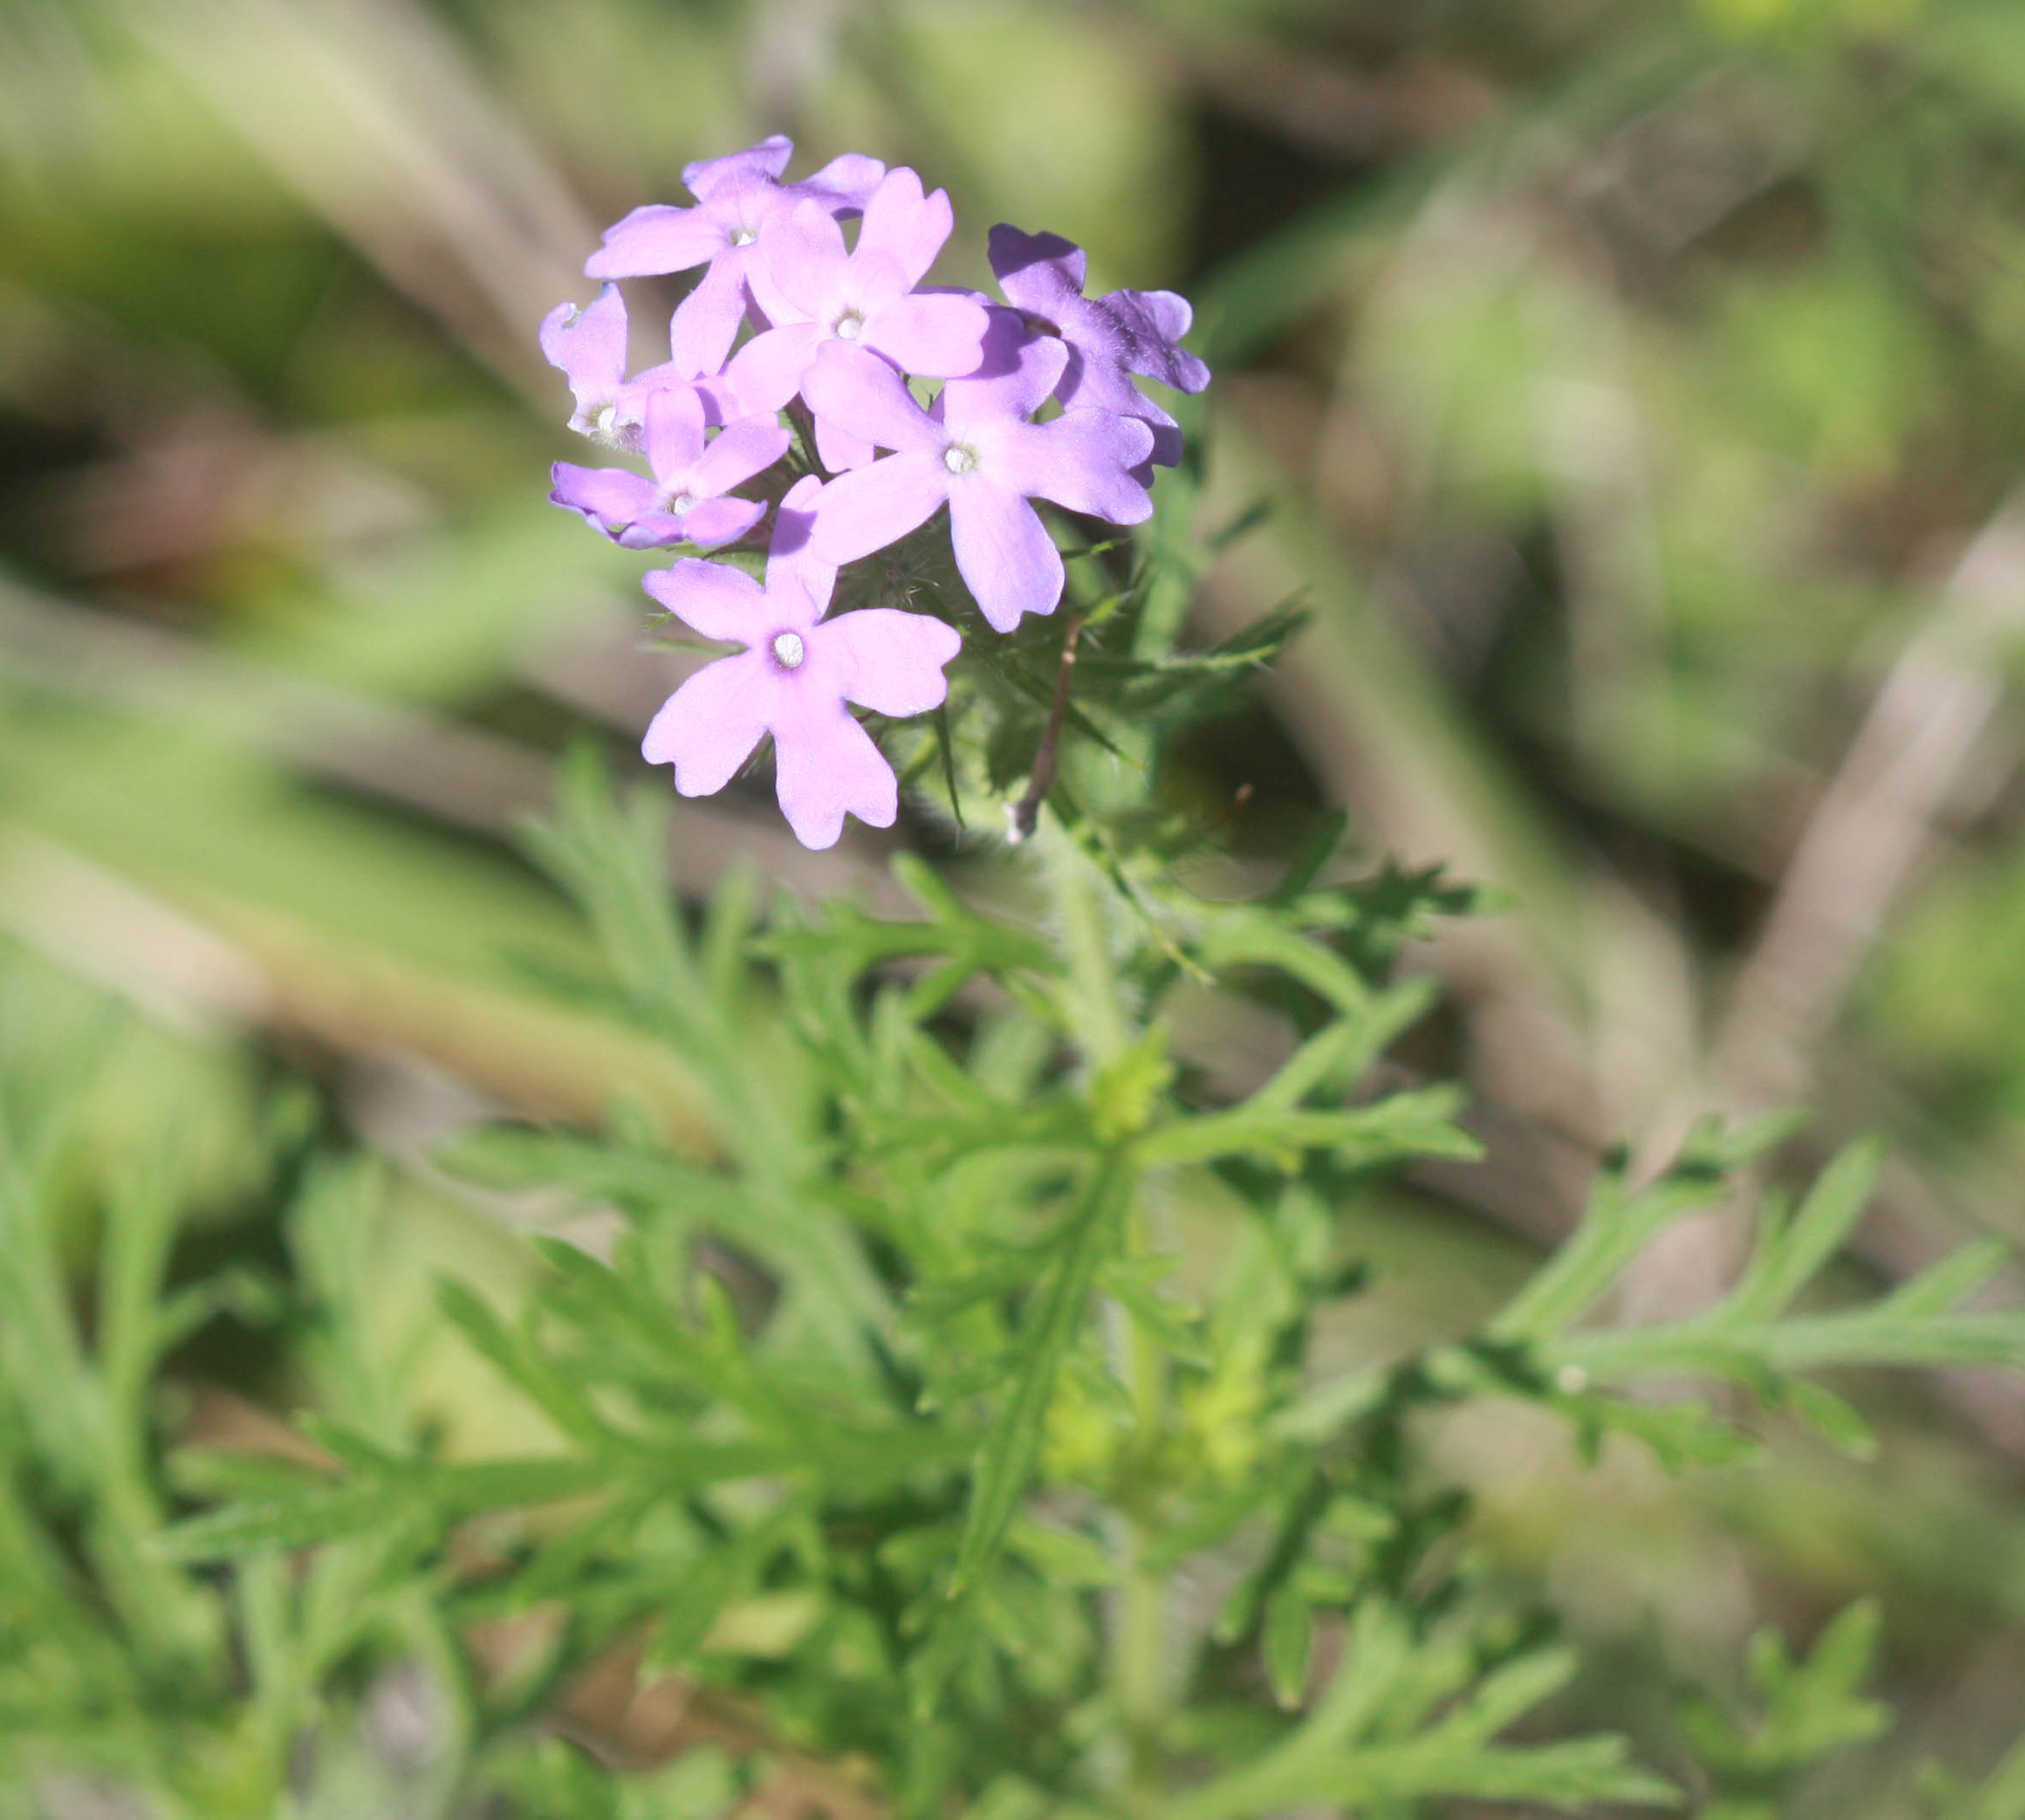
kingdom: Plantae
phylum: Tracheophyta
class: Magnoliopsida
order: Lamiales
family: Verbenaceae
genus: Verbena
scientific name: Verbena bipinnatifida
